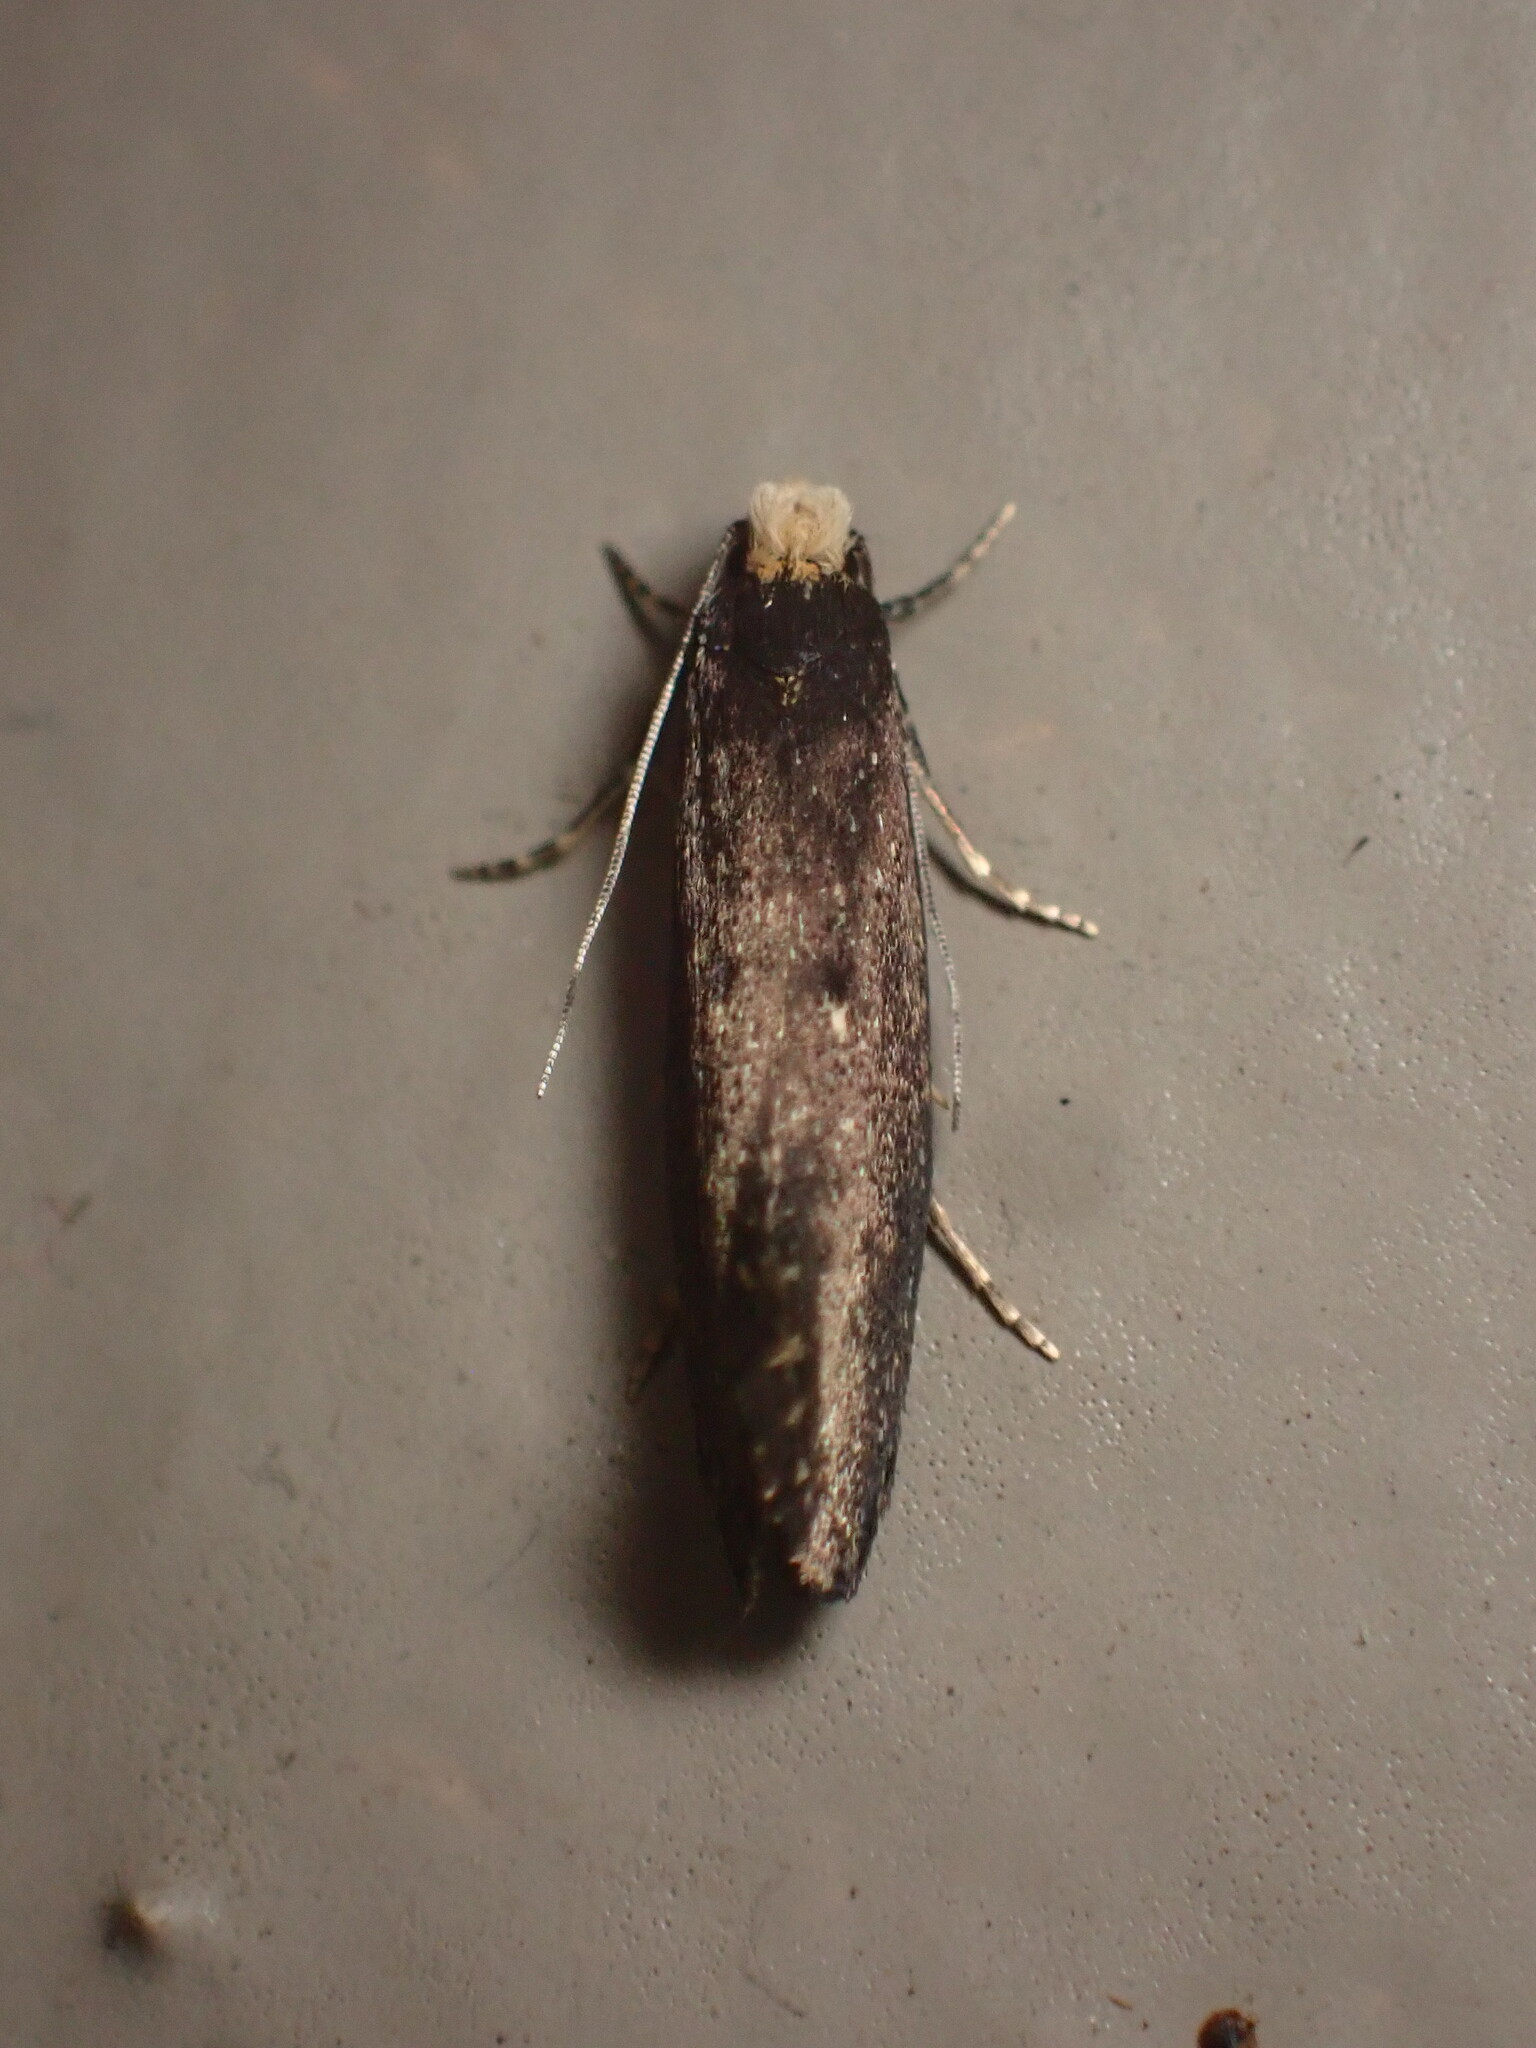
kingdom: Animalia
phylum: Arthropoda
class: Insecta
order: Lepidoptera
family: Tineidae
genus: Tinea
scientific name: Tinea niveocapitella
